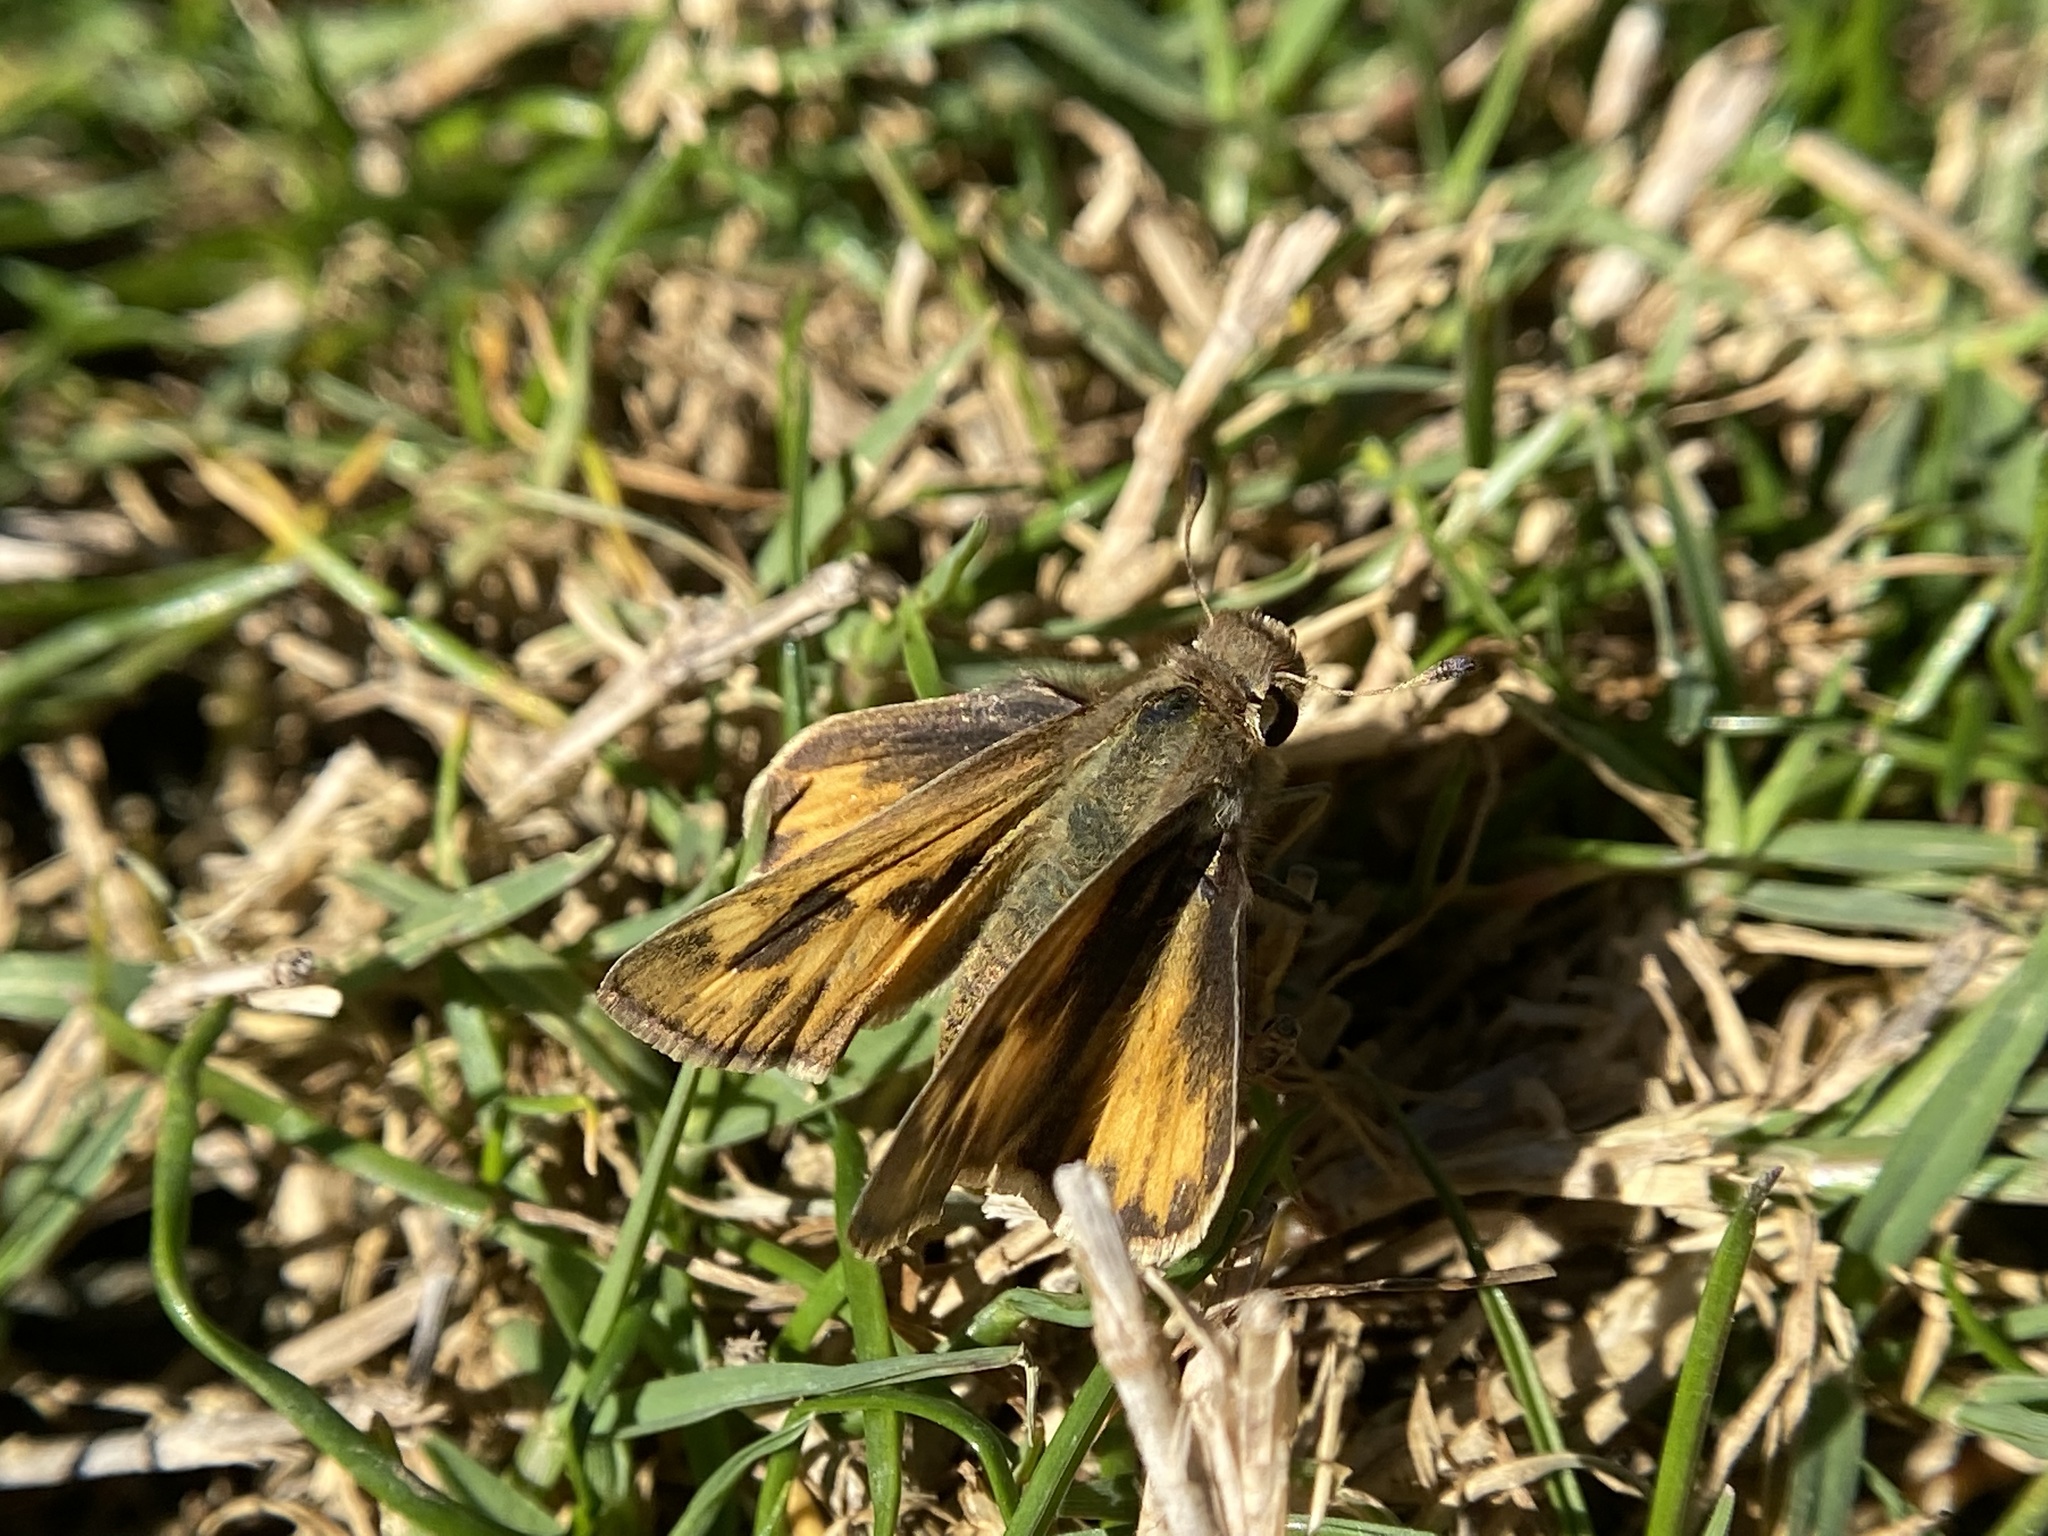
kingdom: Animalia
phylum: Arthropoda
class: Insecta
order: Lepidoptera
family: Hesperiidae
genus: Hylephila
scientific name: Hylephila phyleus
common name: Fiery skipper
